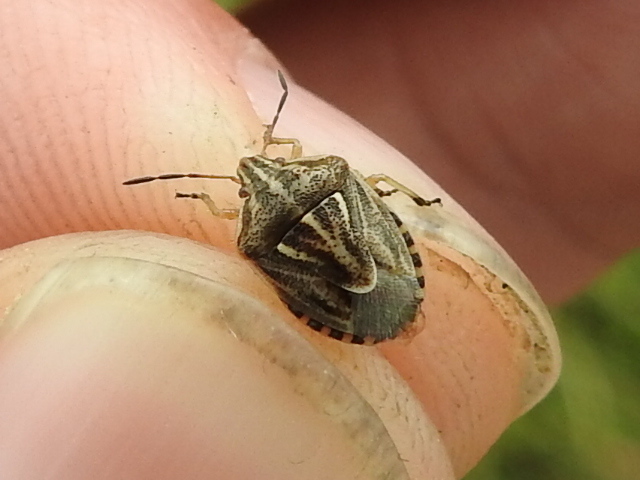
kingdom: Animalia
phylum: Arthropoda
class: Insecta
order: Hemiptera
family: Pentatomidae
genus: Trichopepla
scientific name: Trichopepla semivittata
